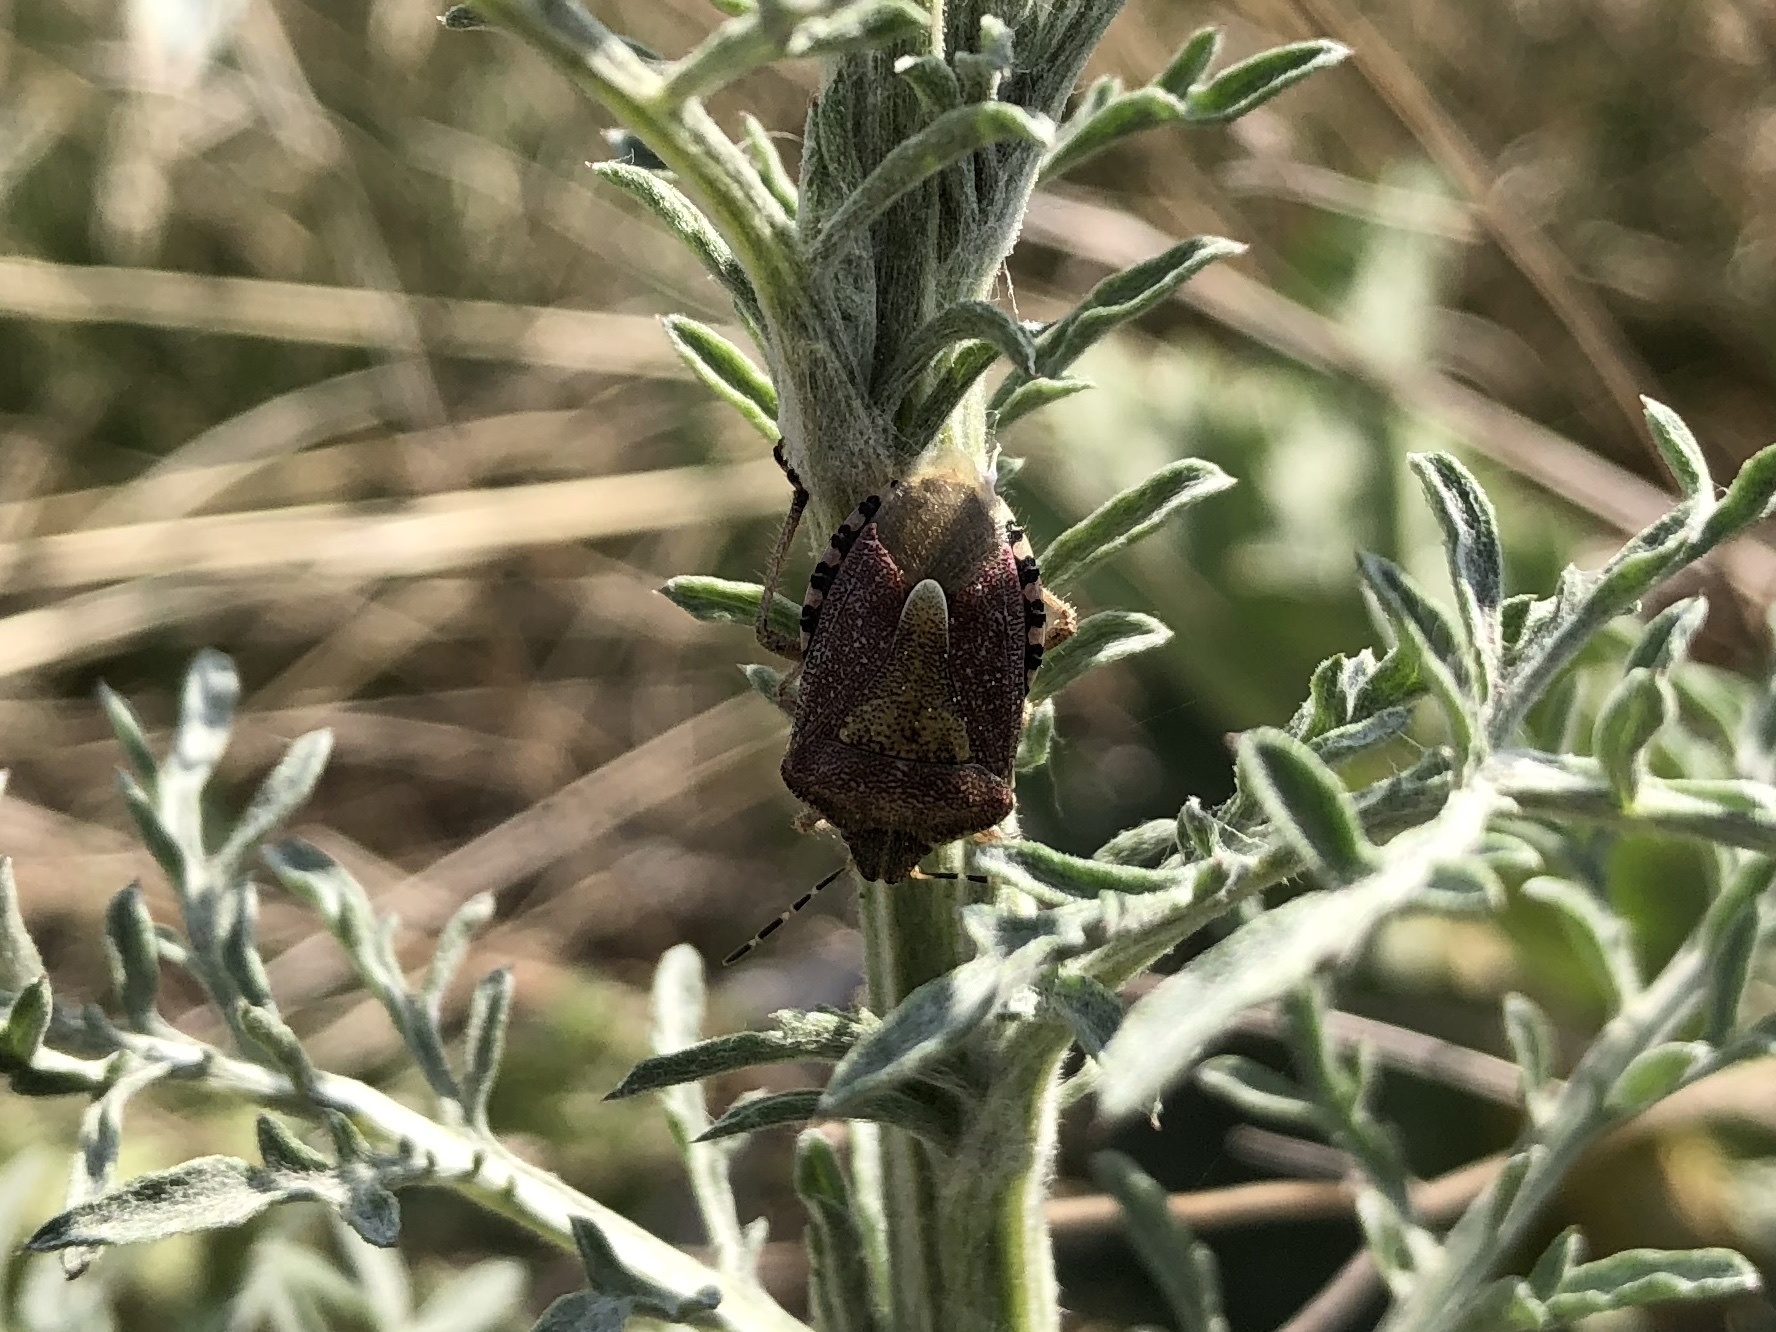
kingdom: Animalia
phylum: Arthropoda
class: Insecta
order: Hemiptera
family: Pentatomidae
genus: Dolycoris
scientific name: Dolycoris baccarum
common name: Sloe bug
